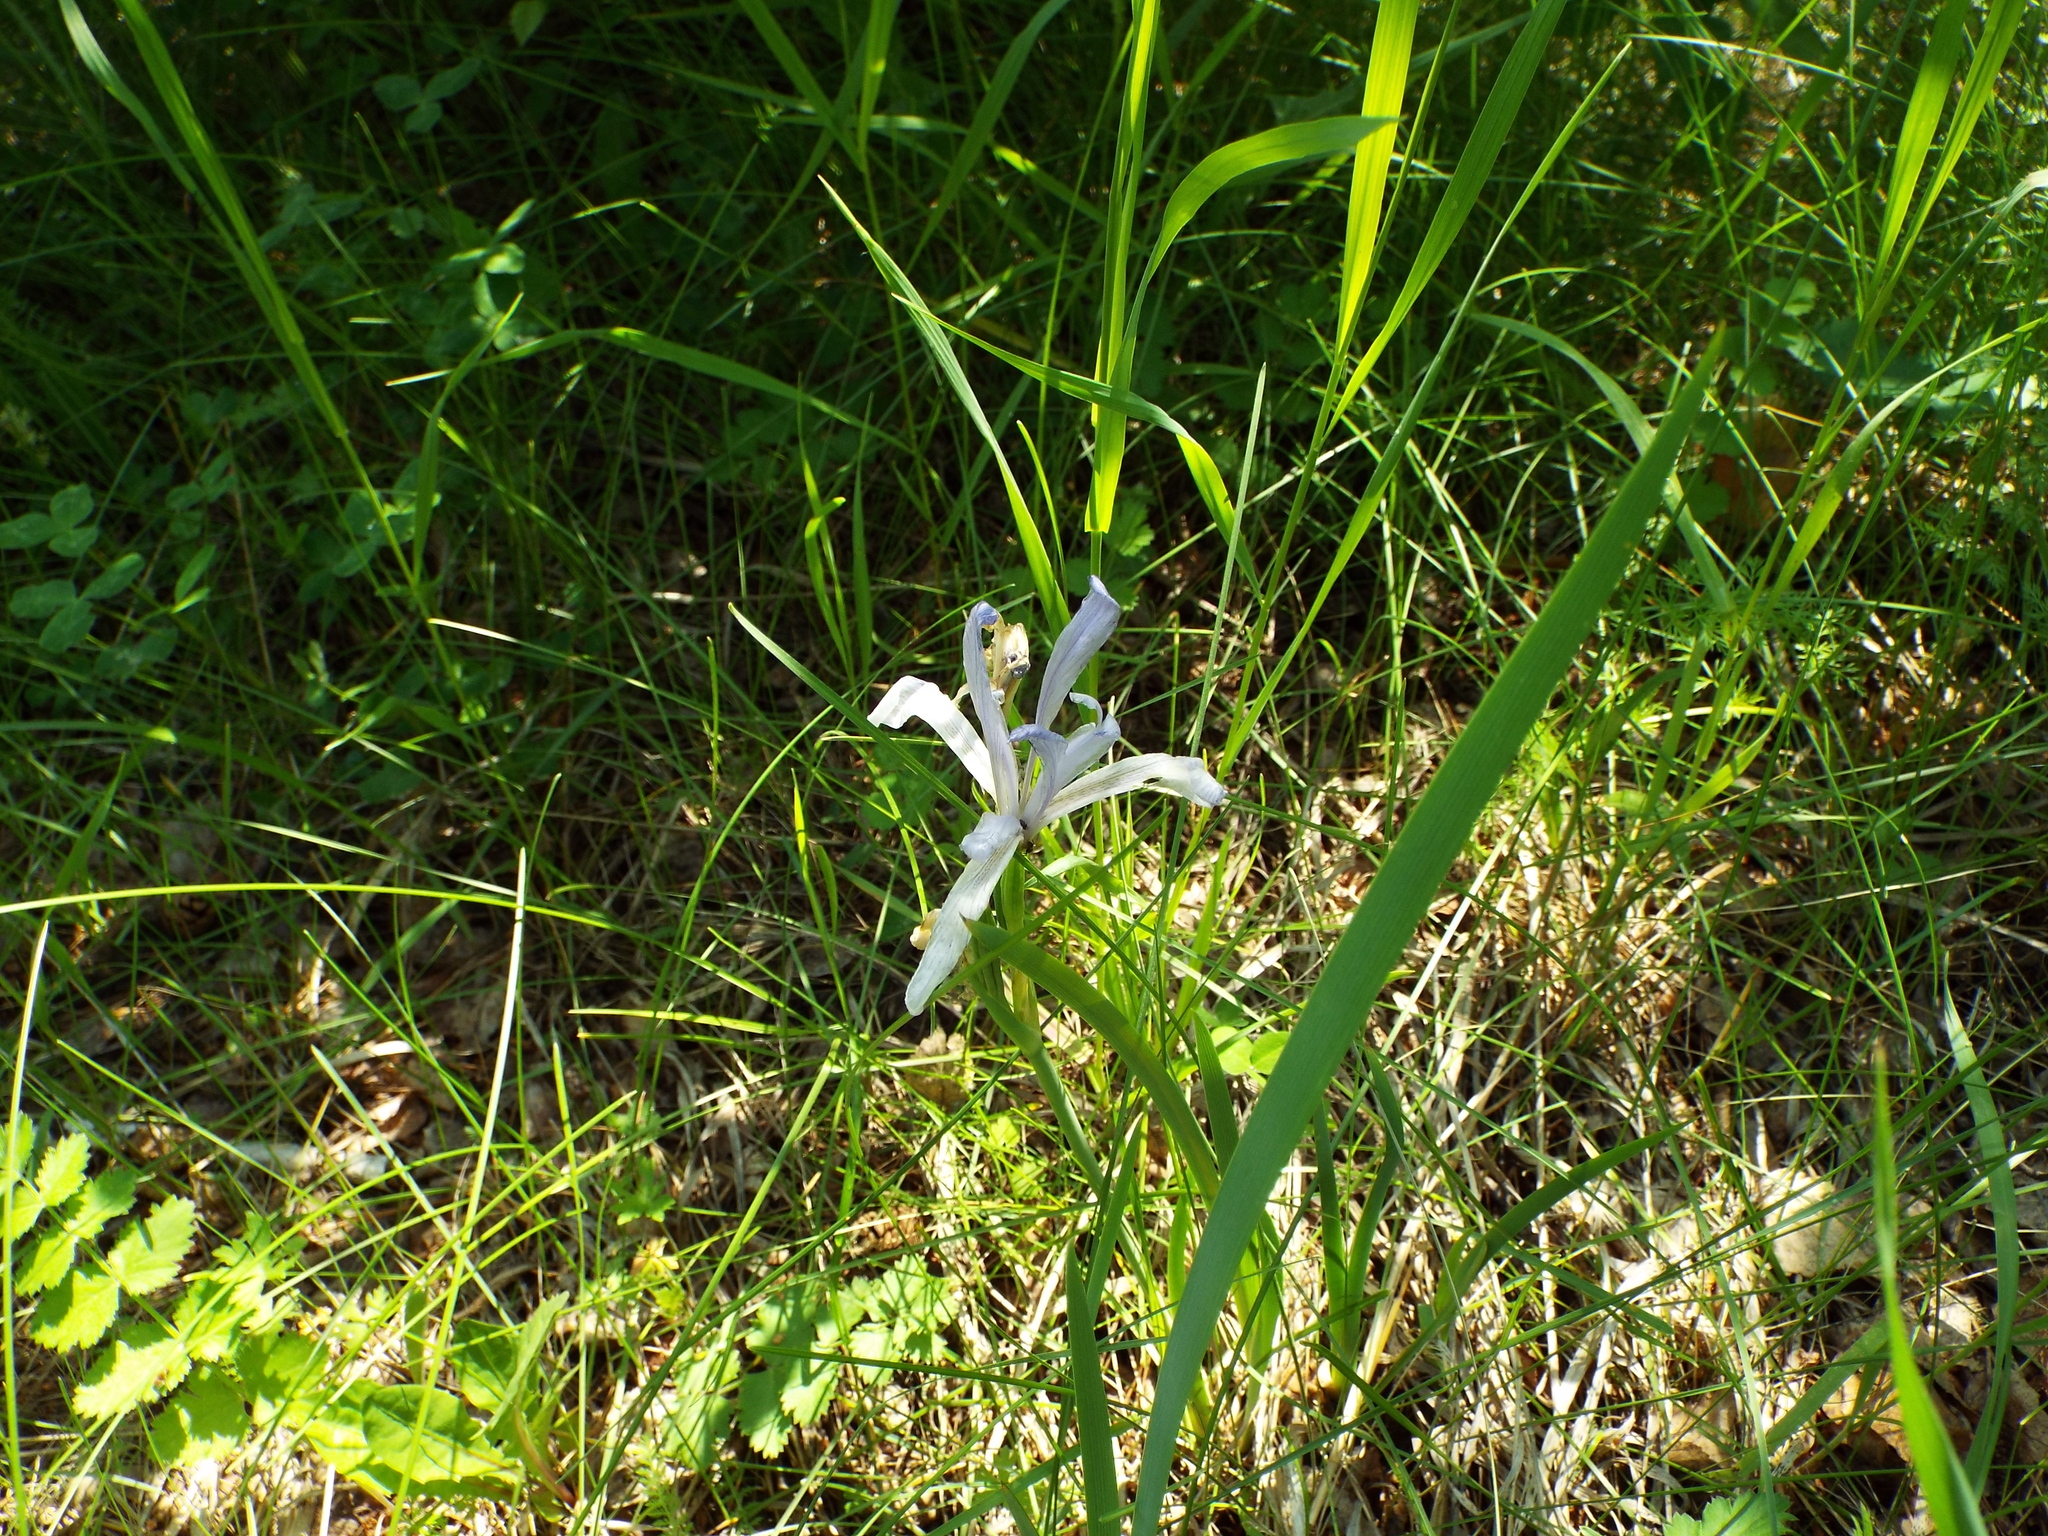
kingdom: Plantae
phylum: Tracheophyta
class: Liliopsida
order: Asparagales
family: Iridaceae
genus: Iris
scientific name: Iris lactea
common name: White-flower chinese iris
